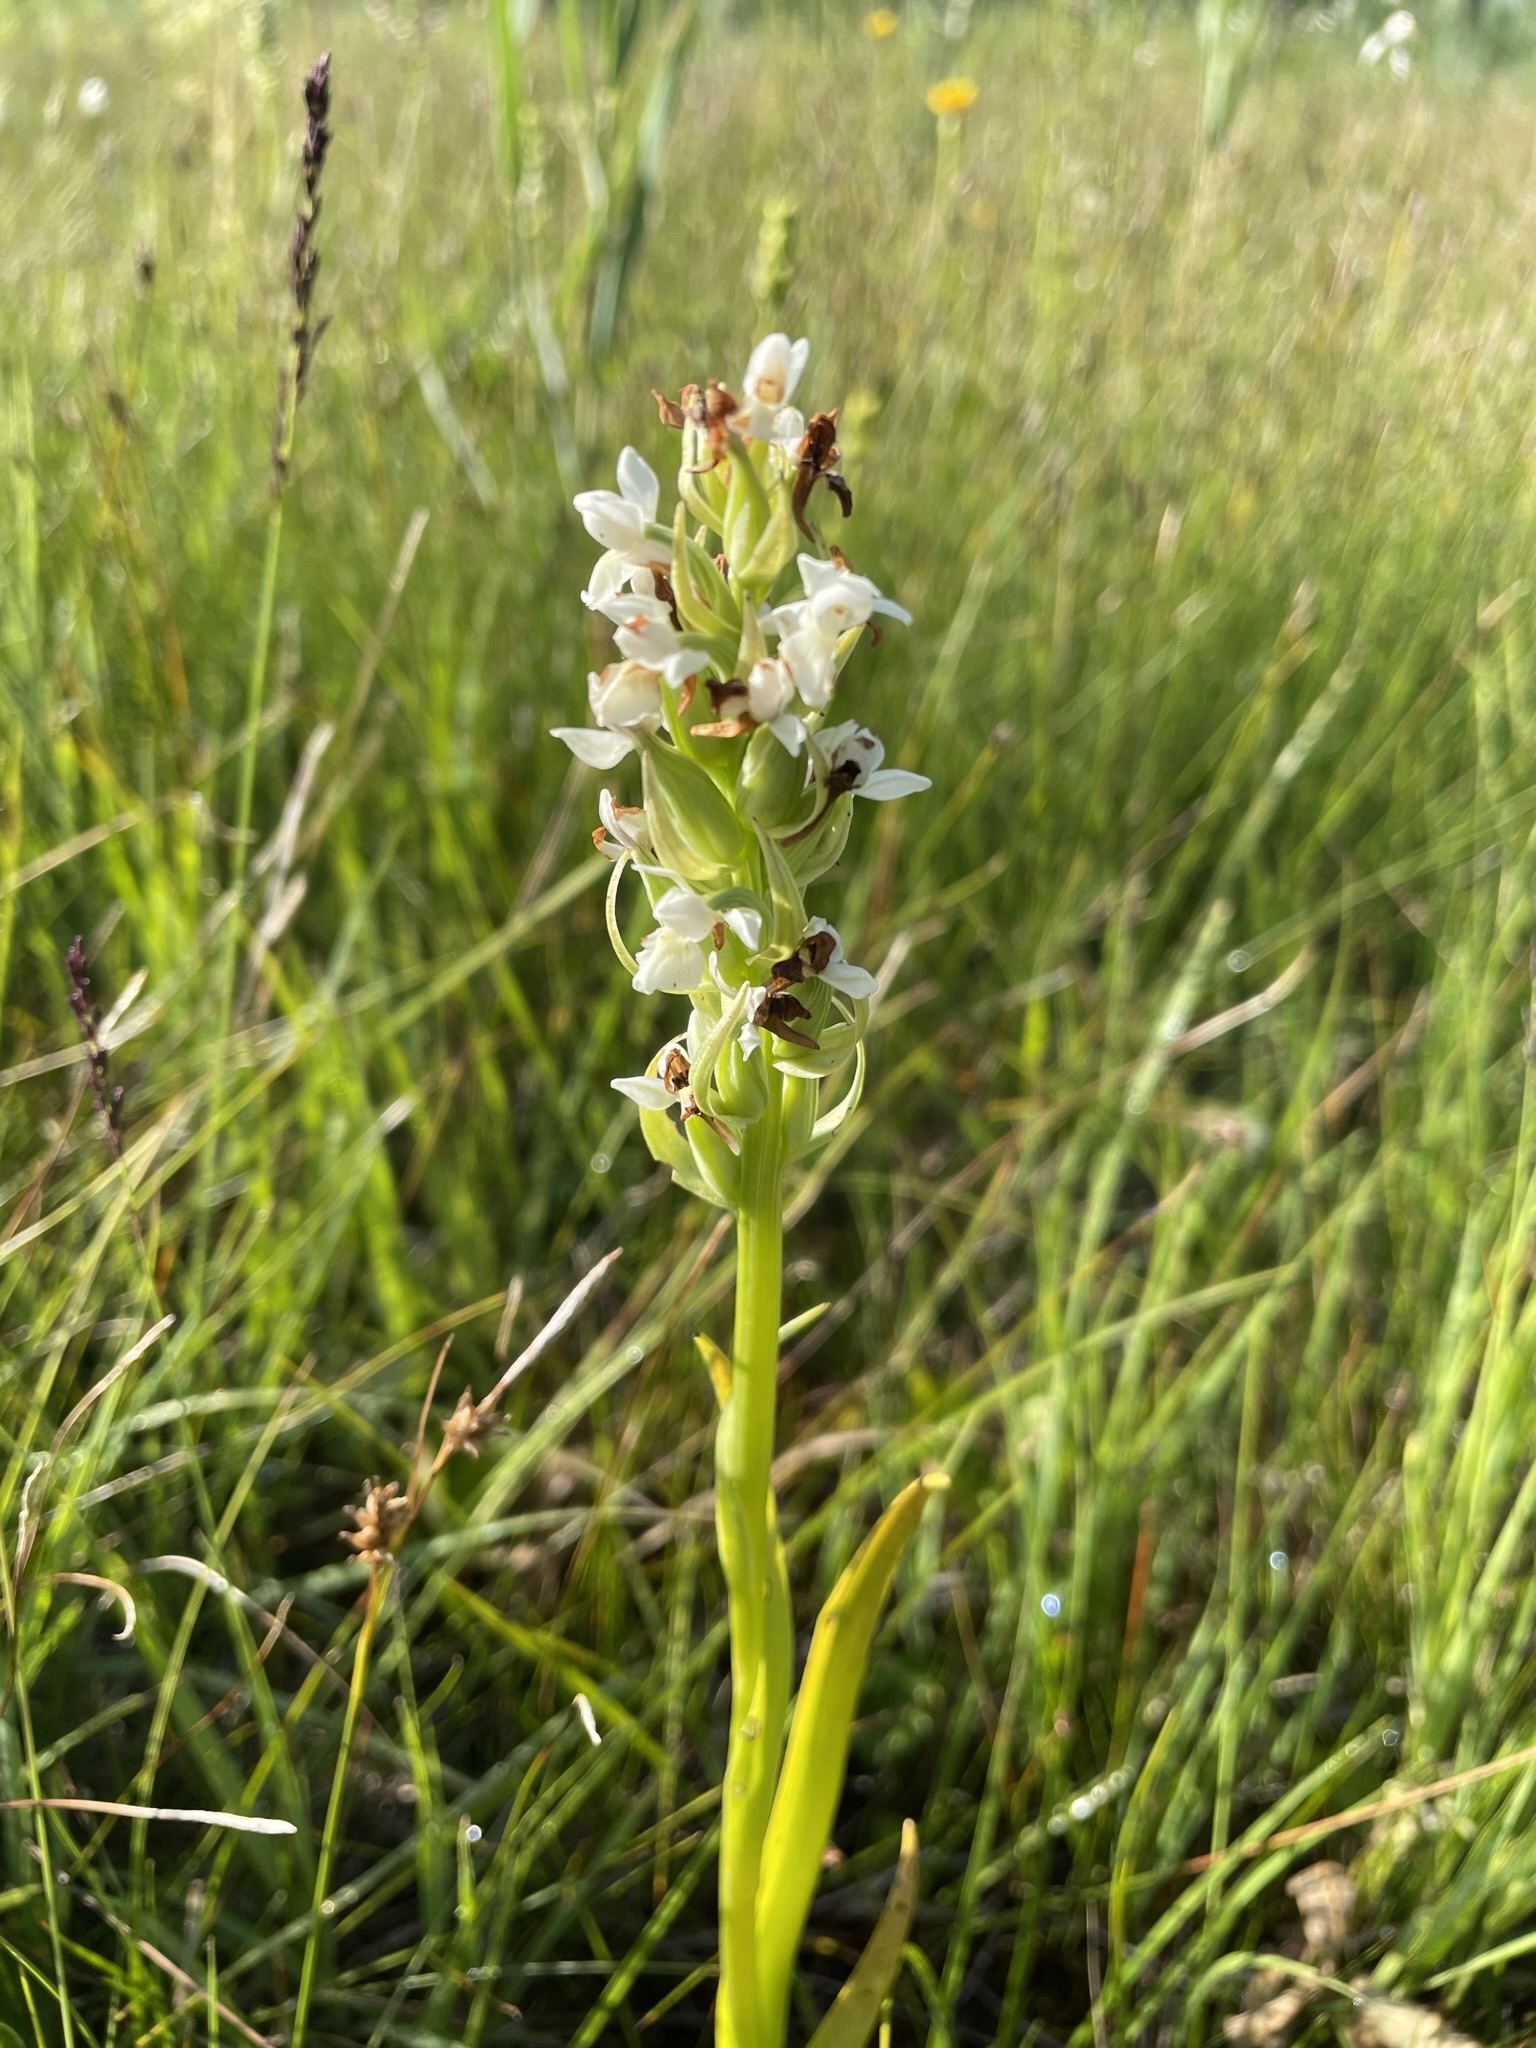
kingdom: Plantae
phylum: Tracheophyta
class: Liliopsida
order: Asparagales
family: Orchidaceae
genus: Dactylorhiza
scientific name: Dactylorhiza incarnata
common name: Early marsh-orchid
